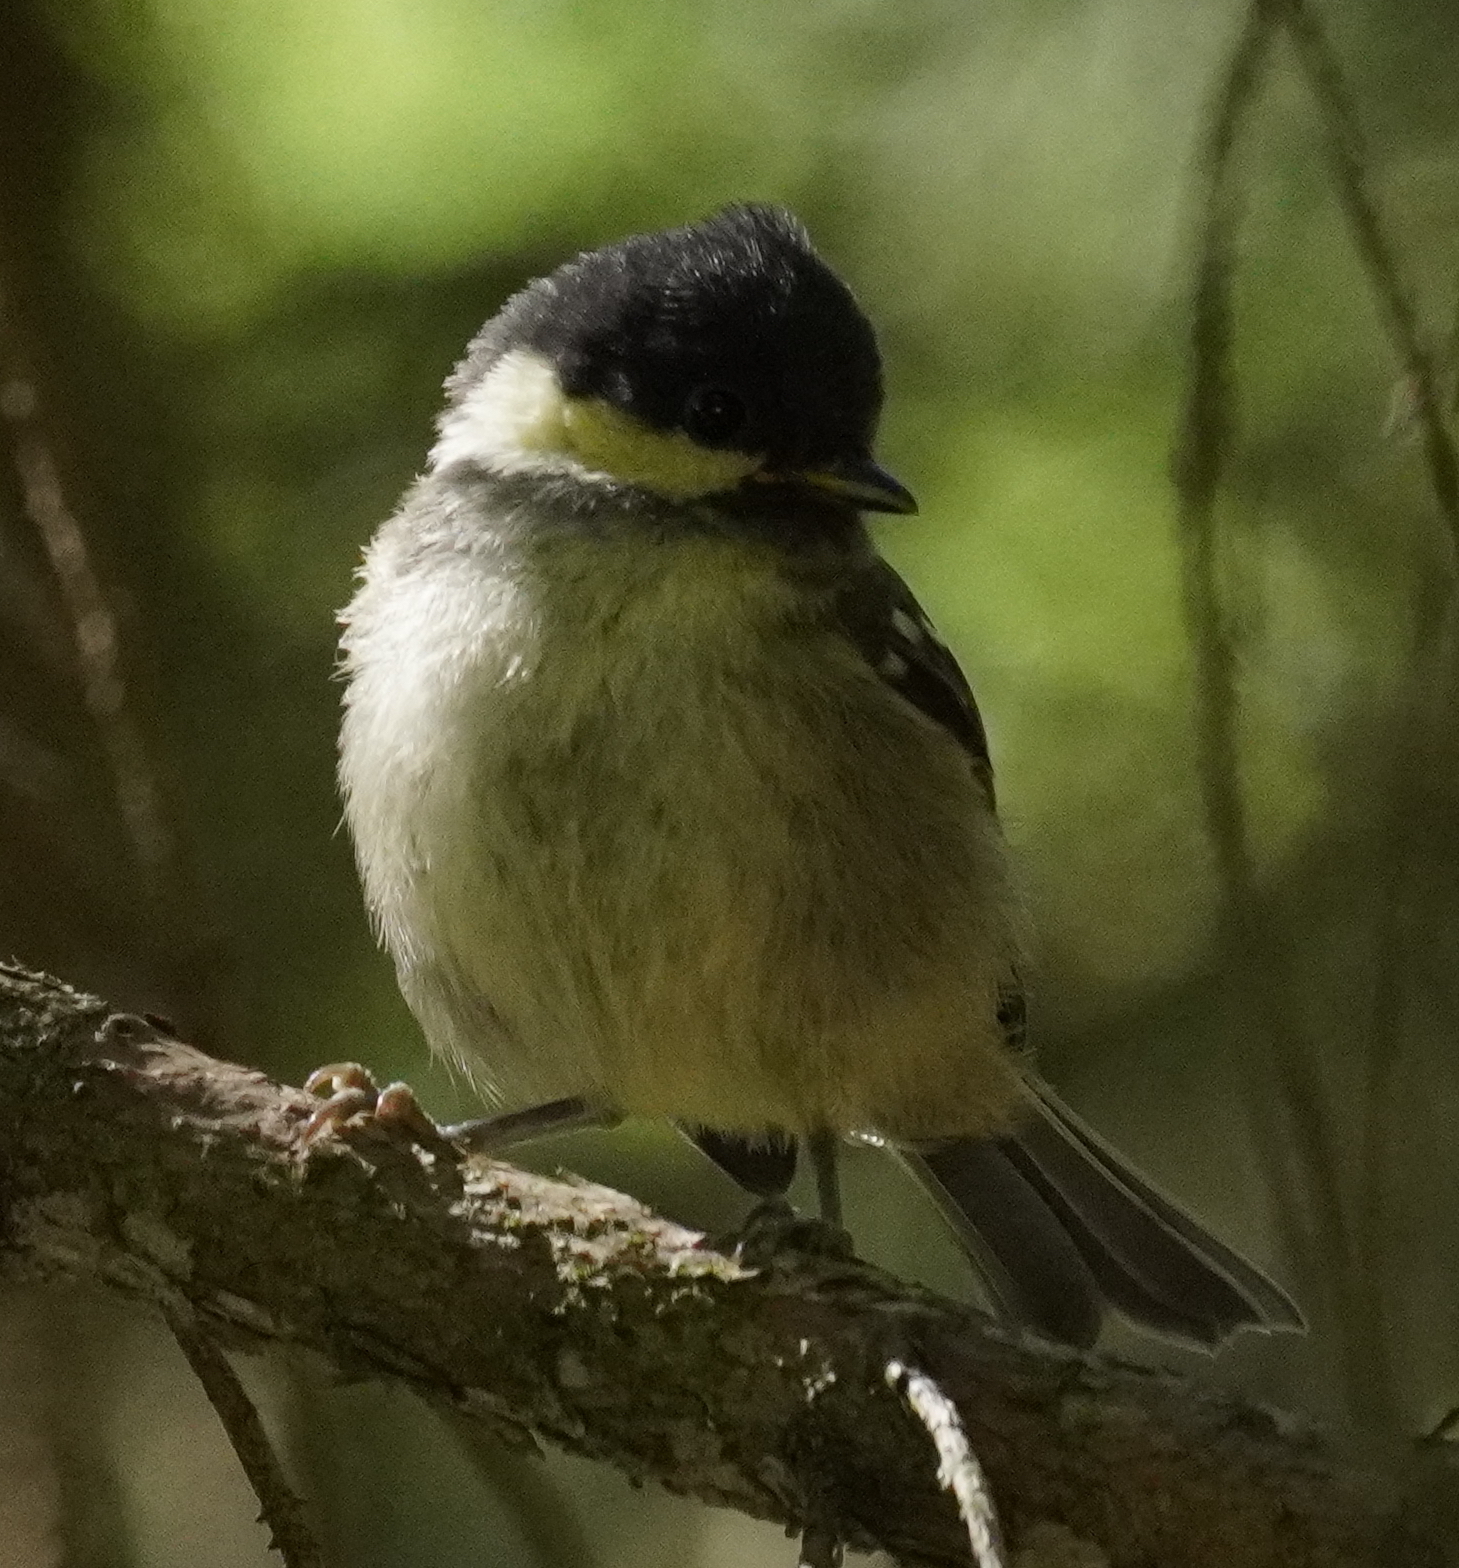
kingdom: Animalia
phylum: Chordata
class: Aves
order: Passeriformes
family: Paridae
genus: Periparus
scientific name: Periparus ater
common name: Coal tit
